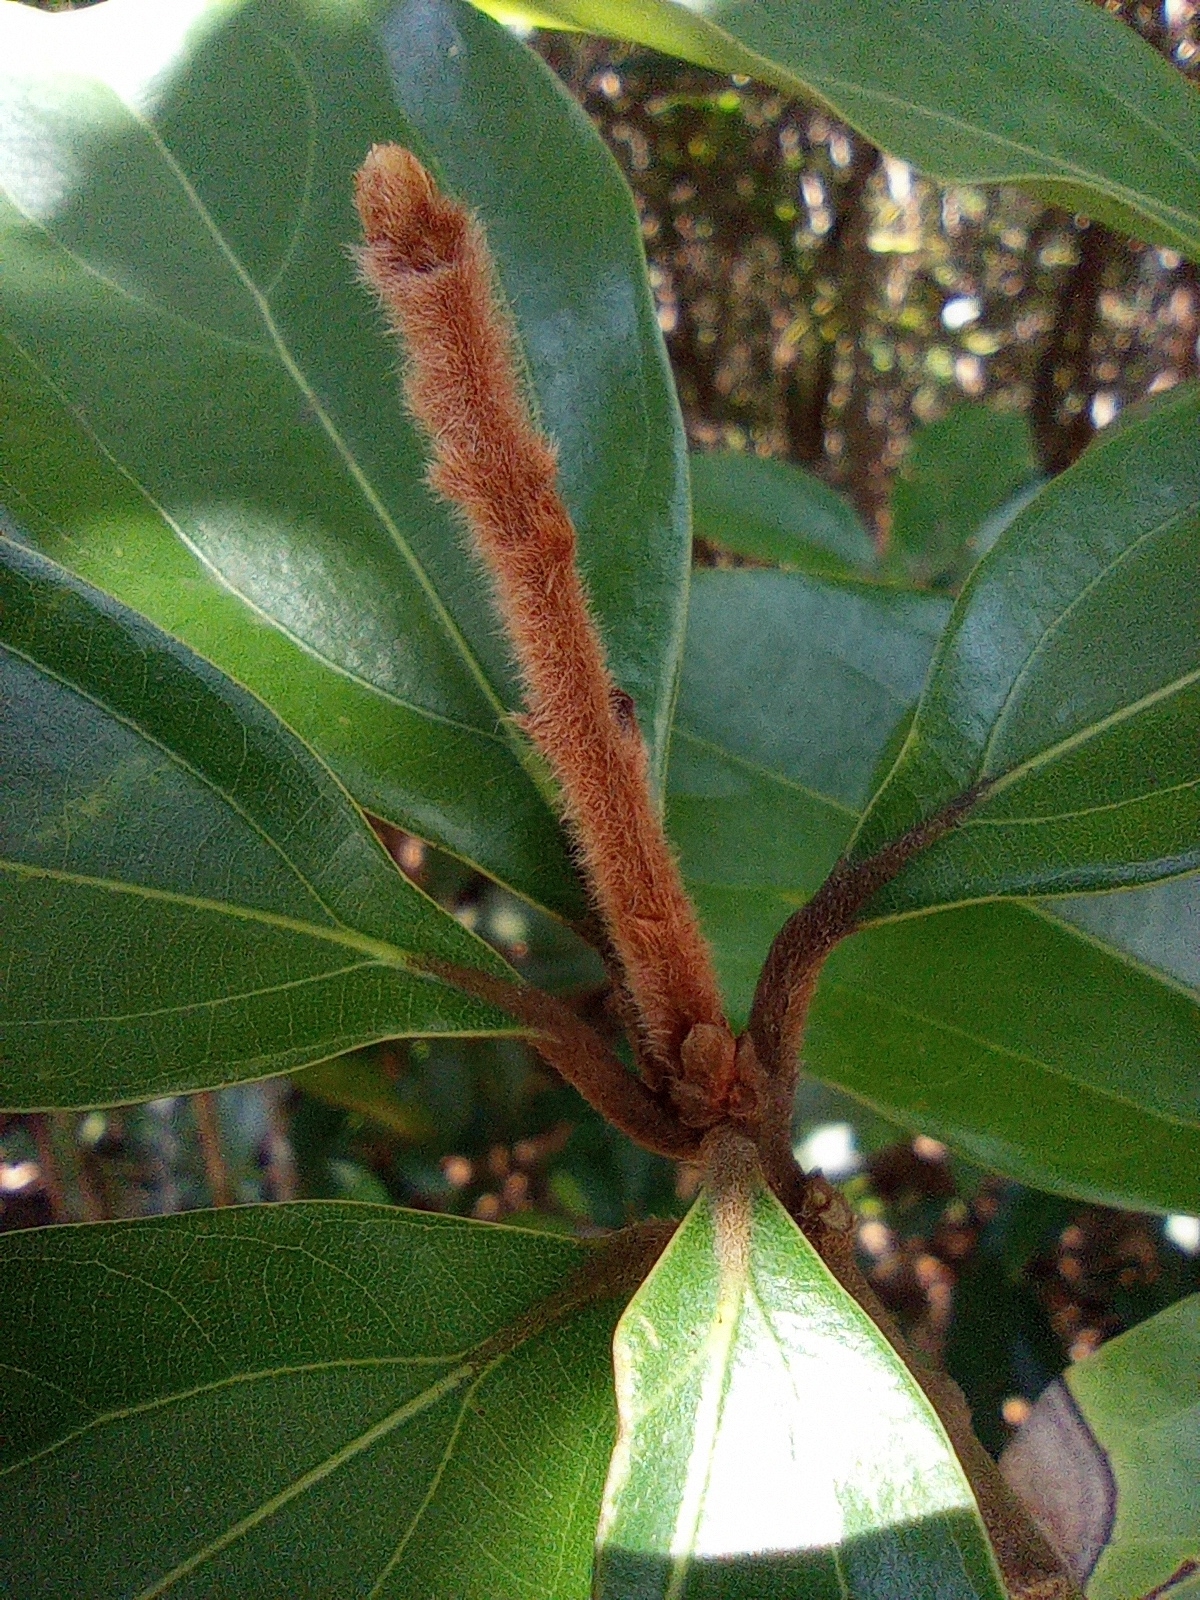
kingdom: Plantae
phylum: Tracheophyta
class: Magnoliopsida
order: Laurales
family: Lauraceae
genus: Neolitsea
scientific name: Neolitsea villosa
